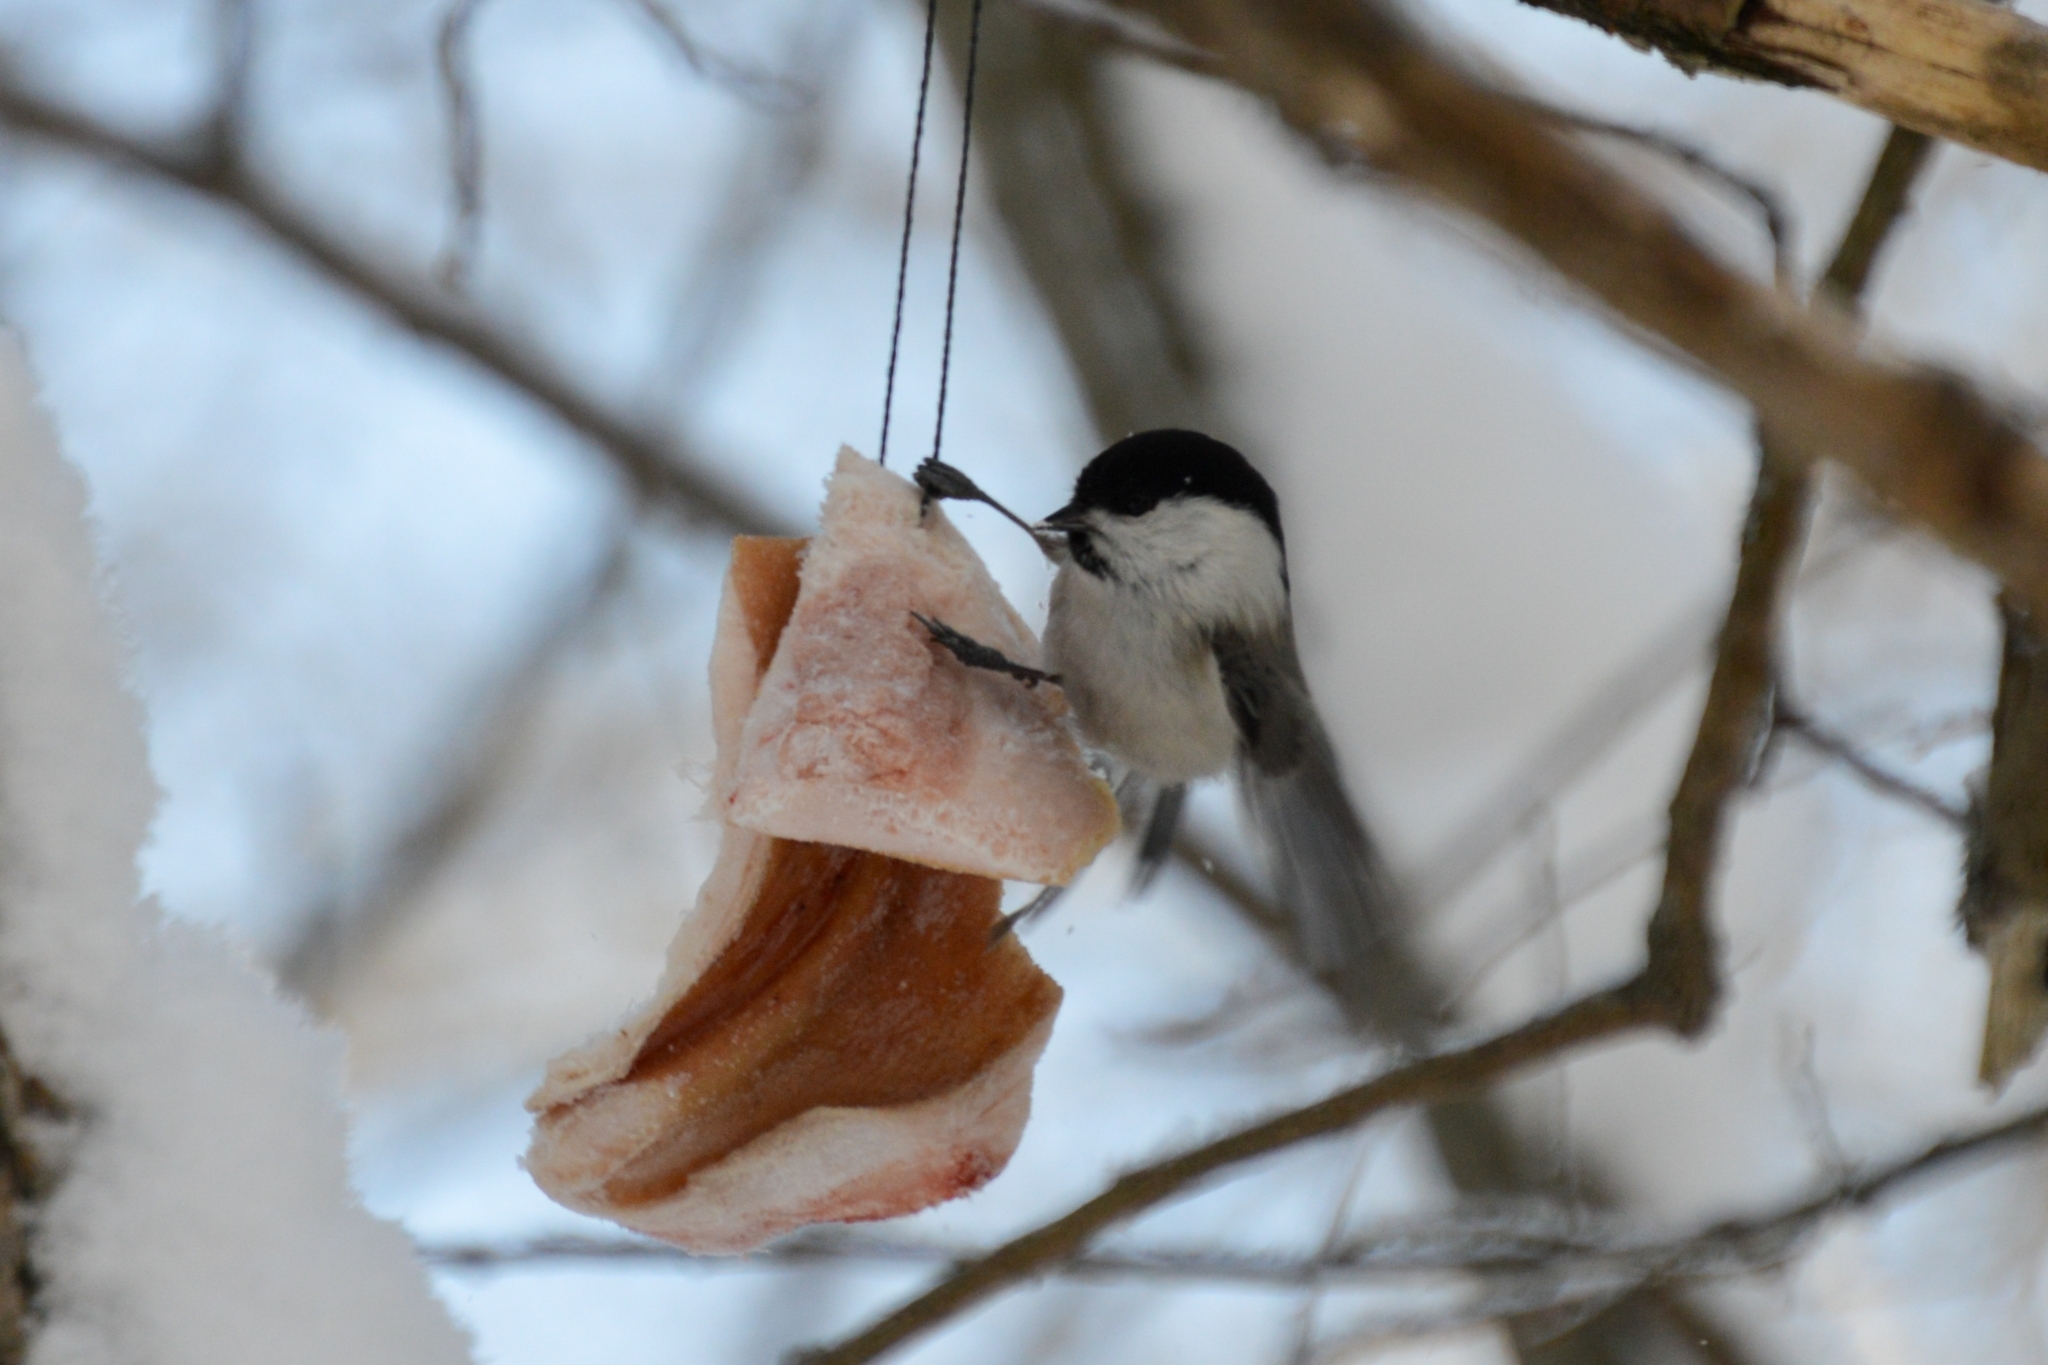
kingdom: Animalia
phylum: Chordata
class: Aves
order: Passeriformes
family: Paridae
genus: Poecile
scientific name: Poecile montanus
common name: Willow tit
